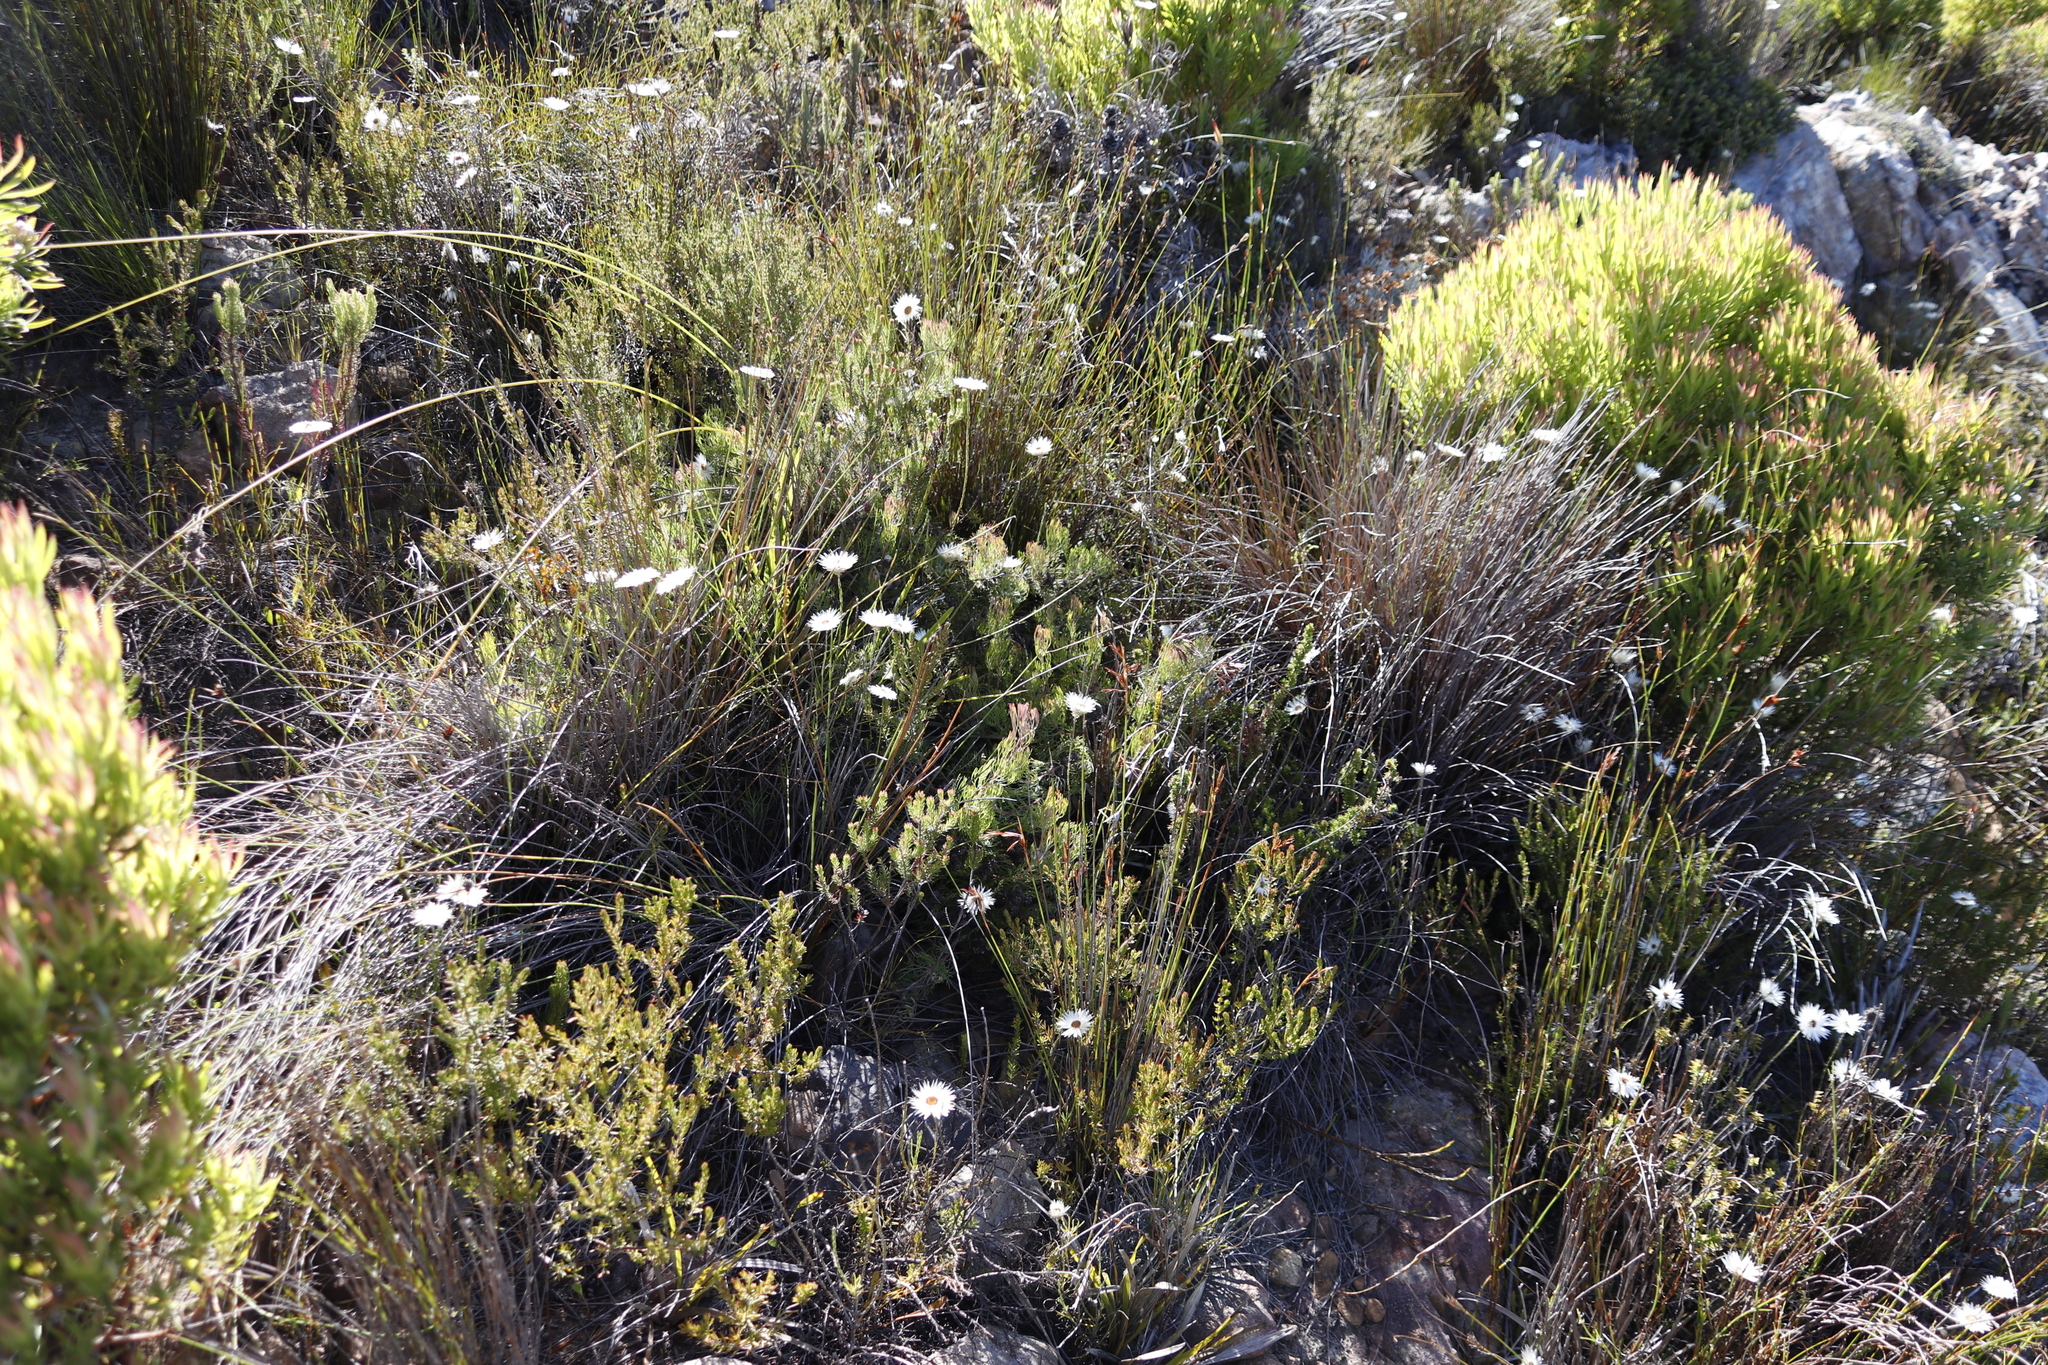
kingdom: Plantae
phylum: Tracheophyta
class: Magnoliopsida
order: Proteales
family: Proteaceae
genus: Serruria
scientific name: Serruria fasciflora
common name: Common pin spiderhead
